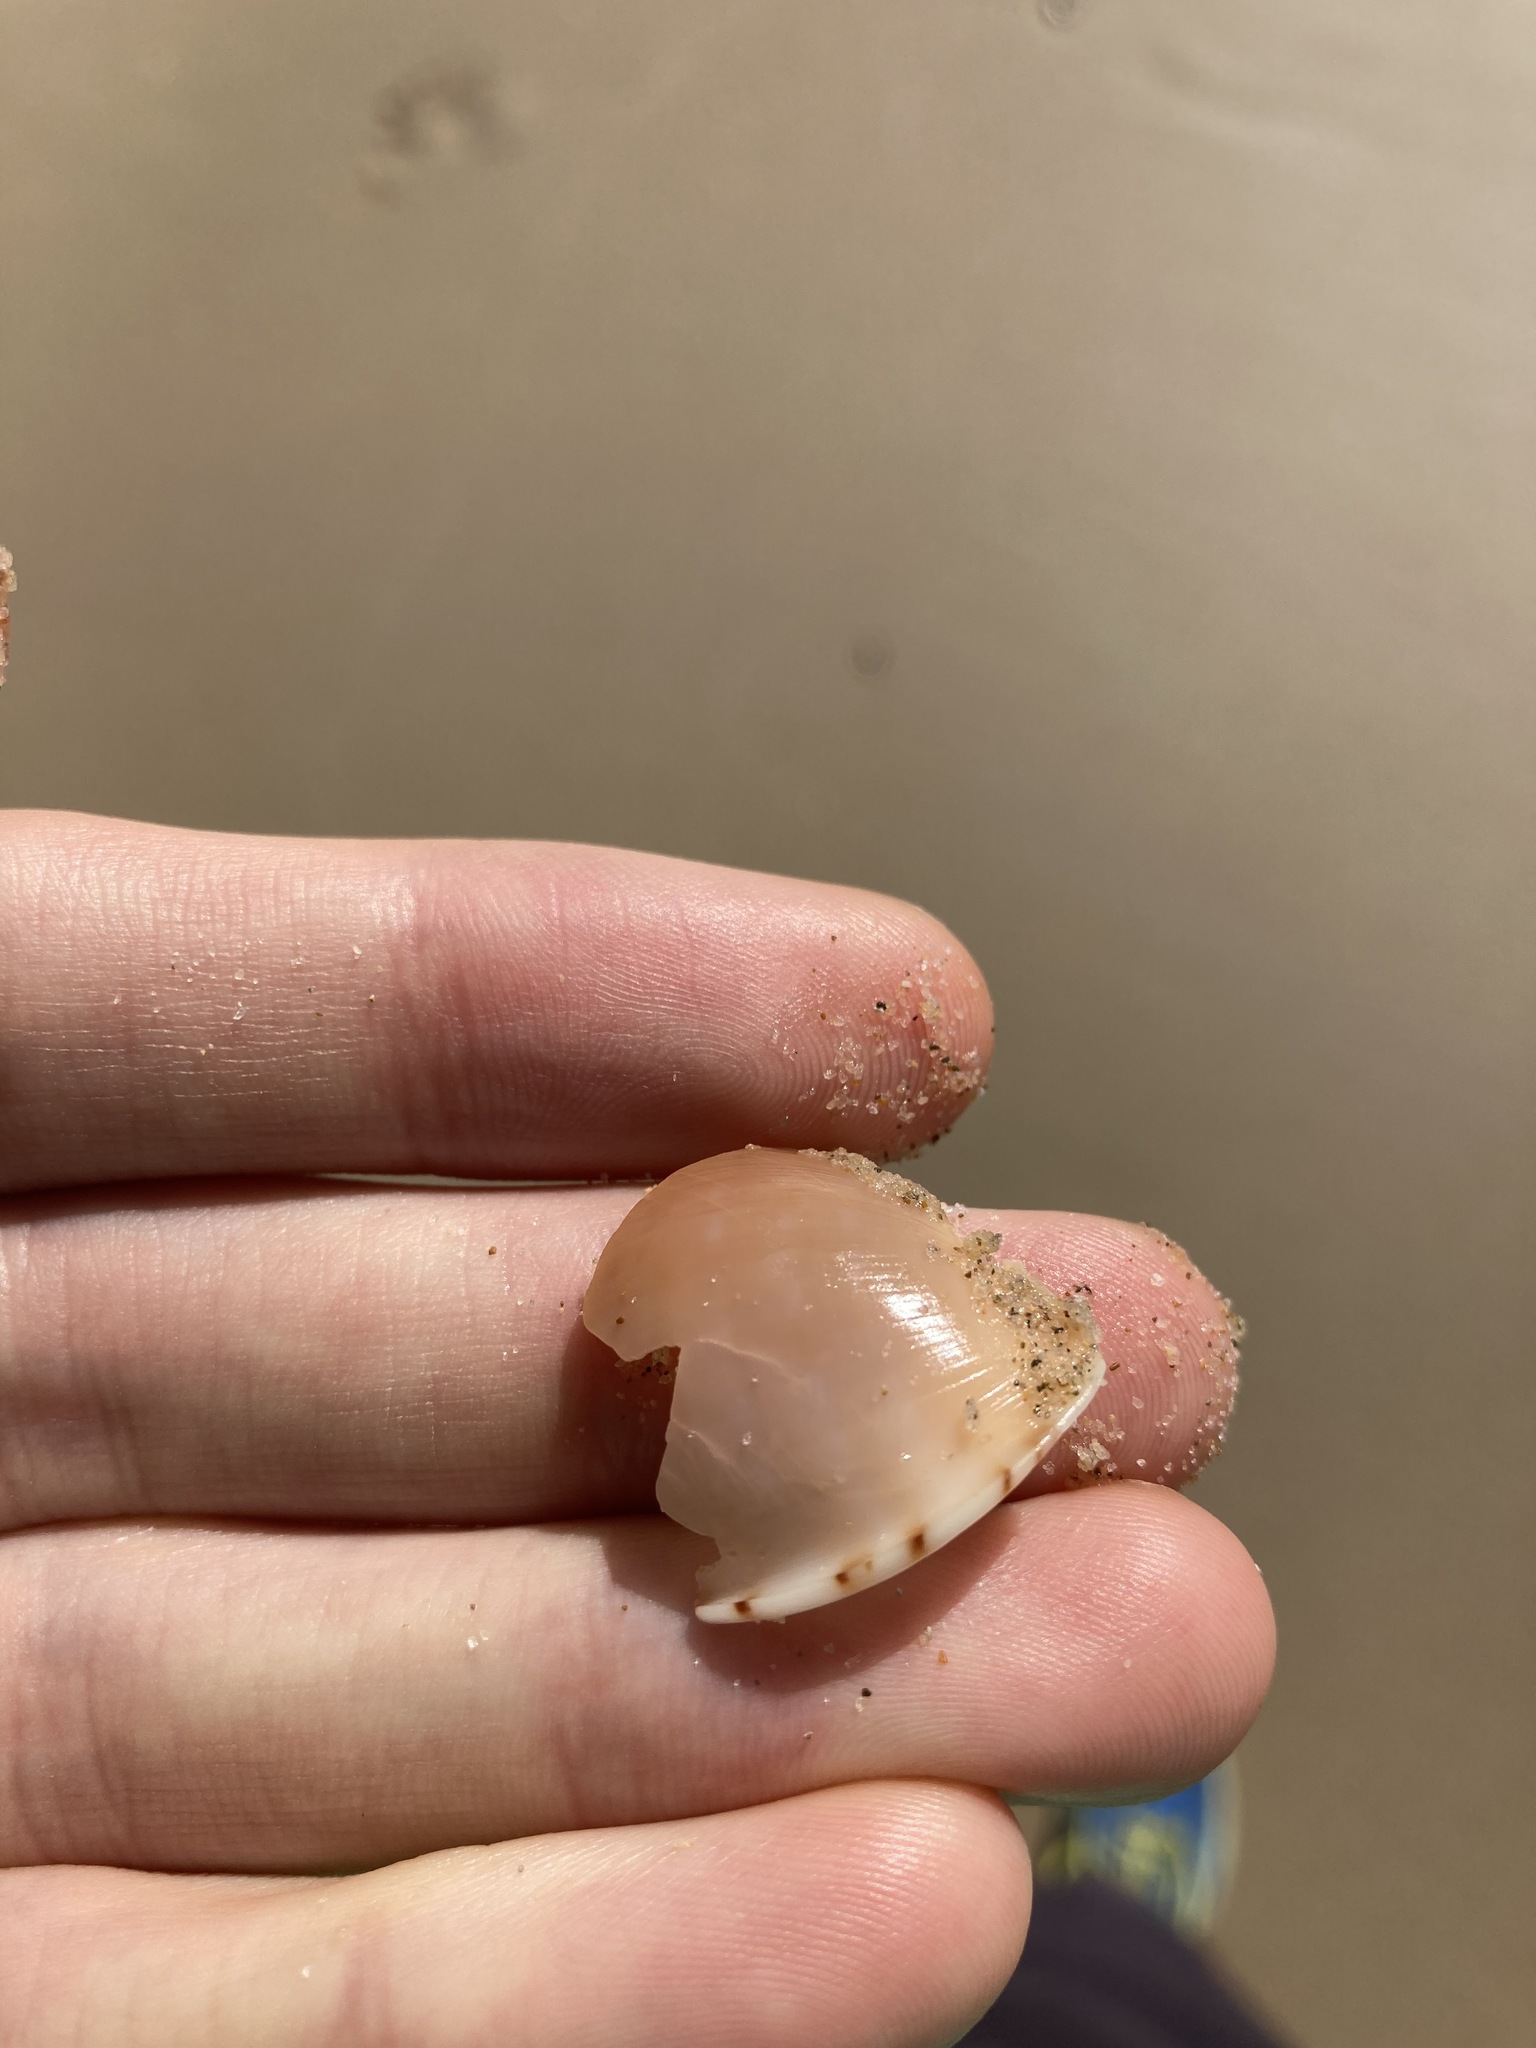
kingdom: Animalia
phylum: Mollusca
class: Gastropoda
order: Littorinimorpha
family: Cassidae
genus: Semicassis
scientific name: Semicassis labiata
